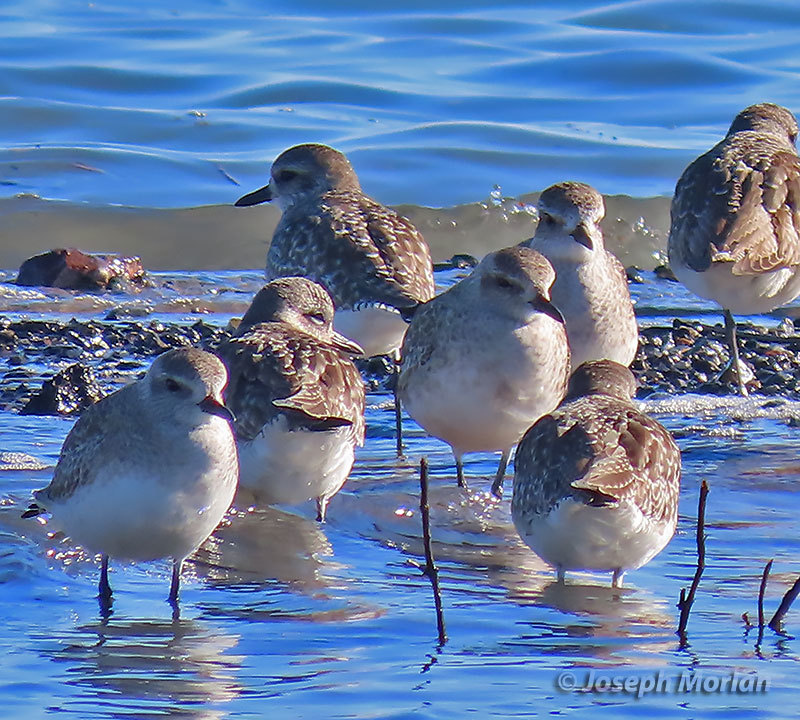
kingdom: Animalia
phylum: Chordata
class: Aves
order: Charadriiformes
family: Charadriidae
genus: Pluvialis
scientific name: Pluvialis squatarola
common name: Grey plover
